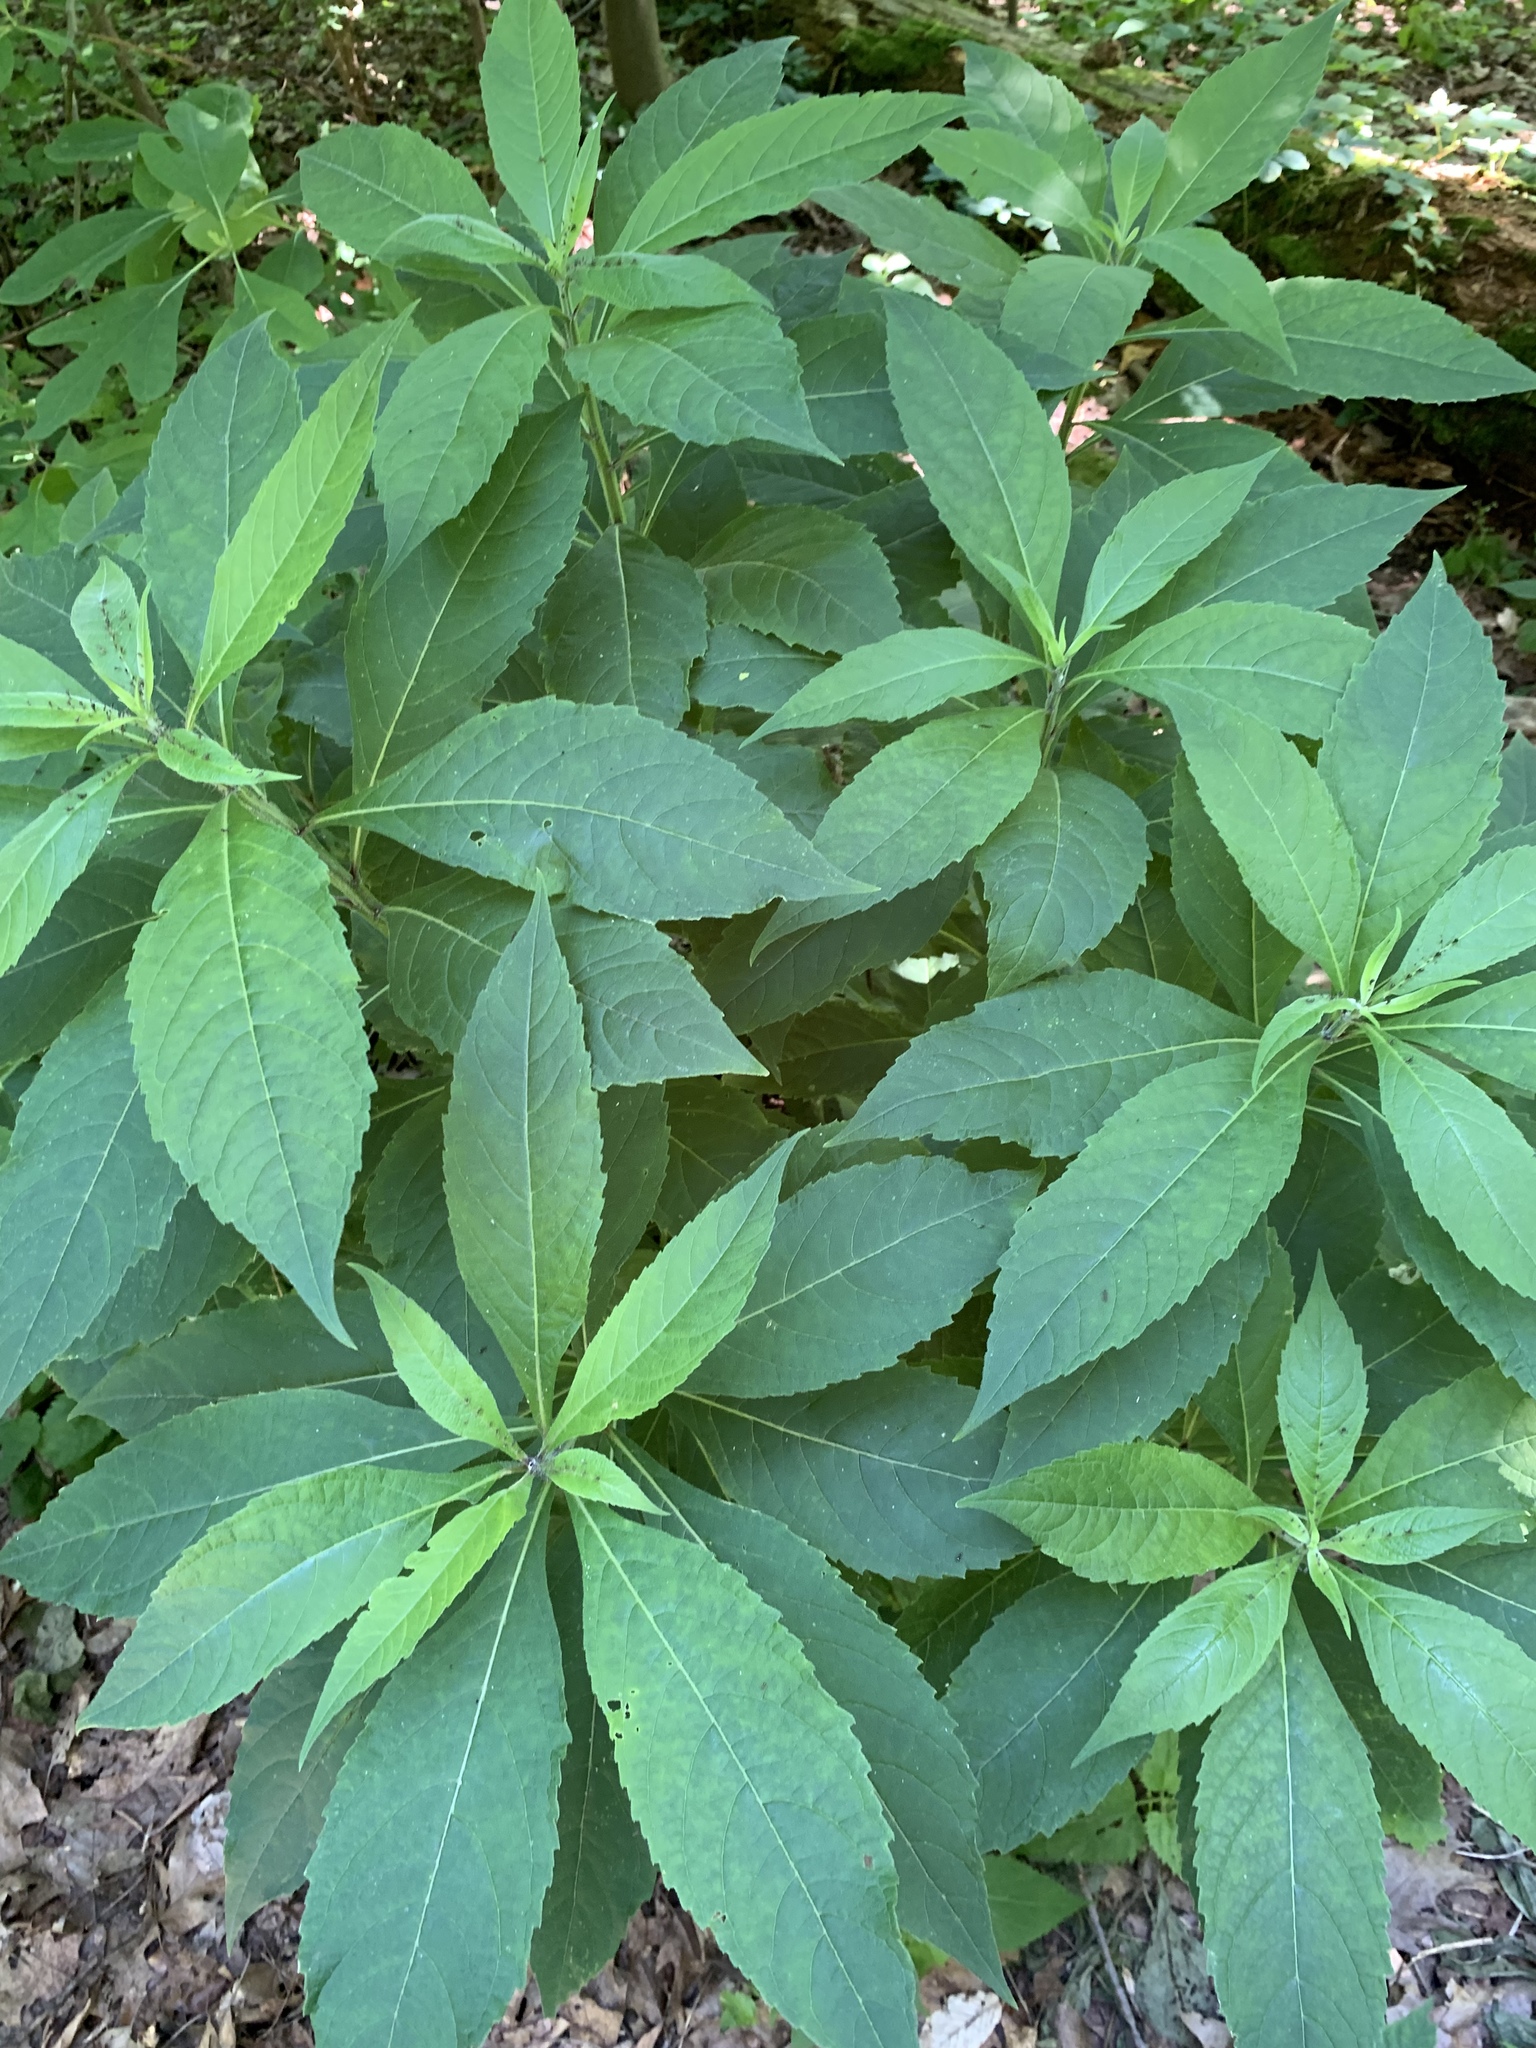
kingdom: Plantae
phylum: Tracheophyta
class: Magnoliopsida
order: Asterales
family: Asteraceae
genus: Verbesina
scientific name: Verbesina alternifolia
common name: Wingstem
